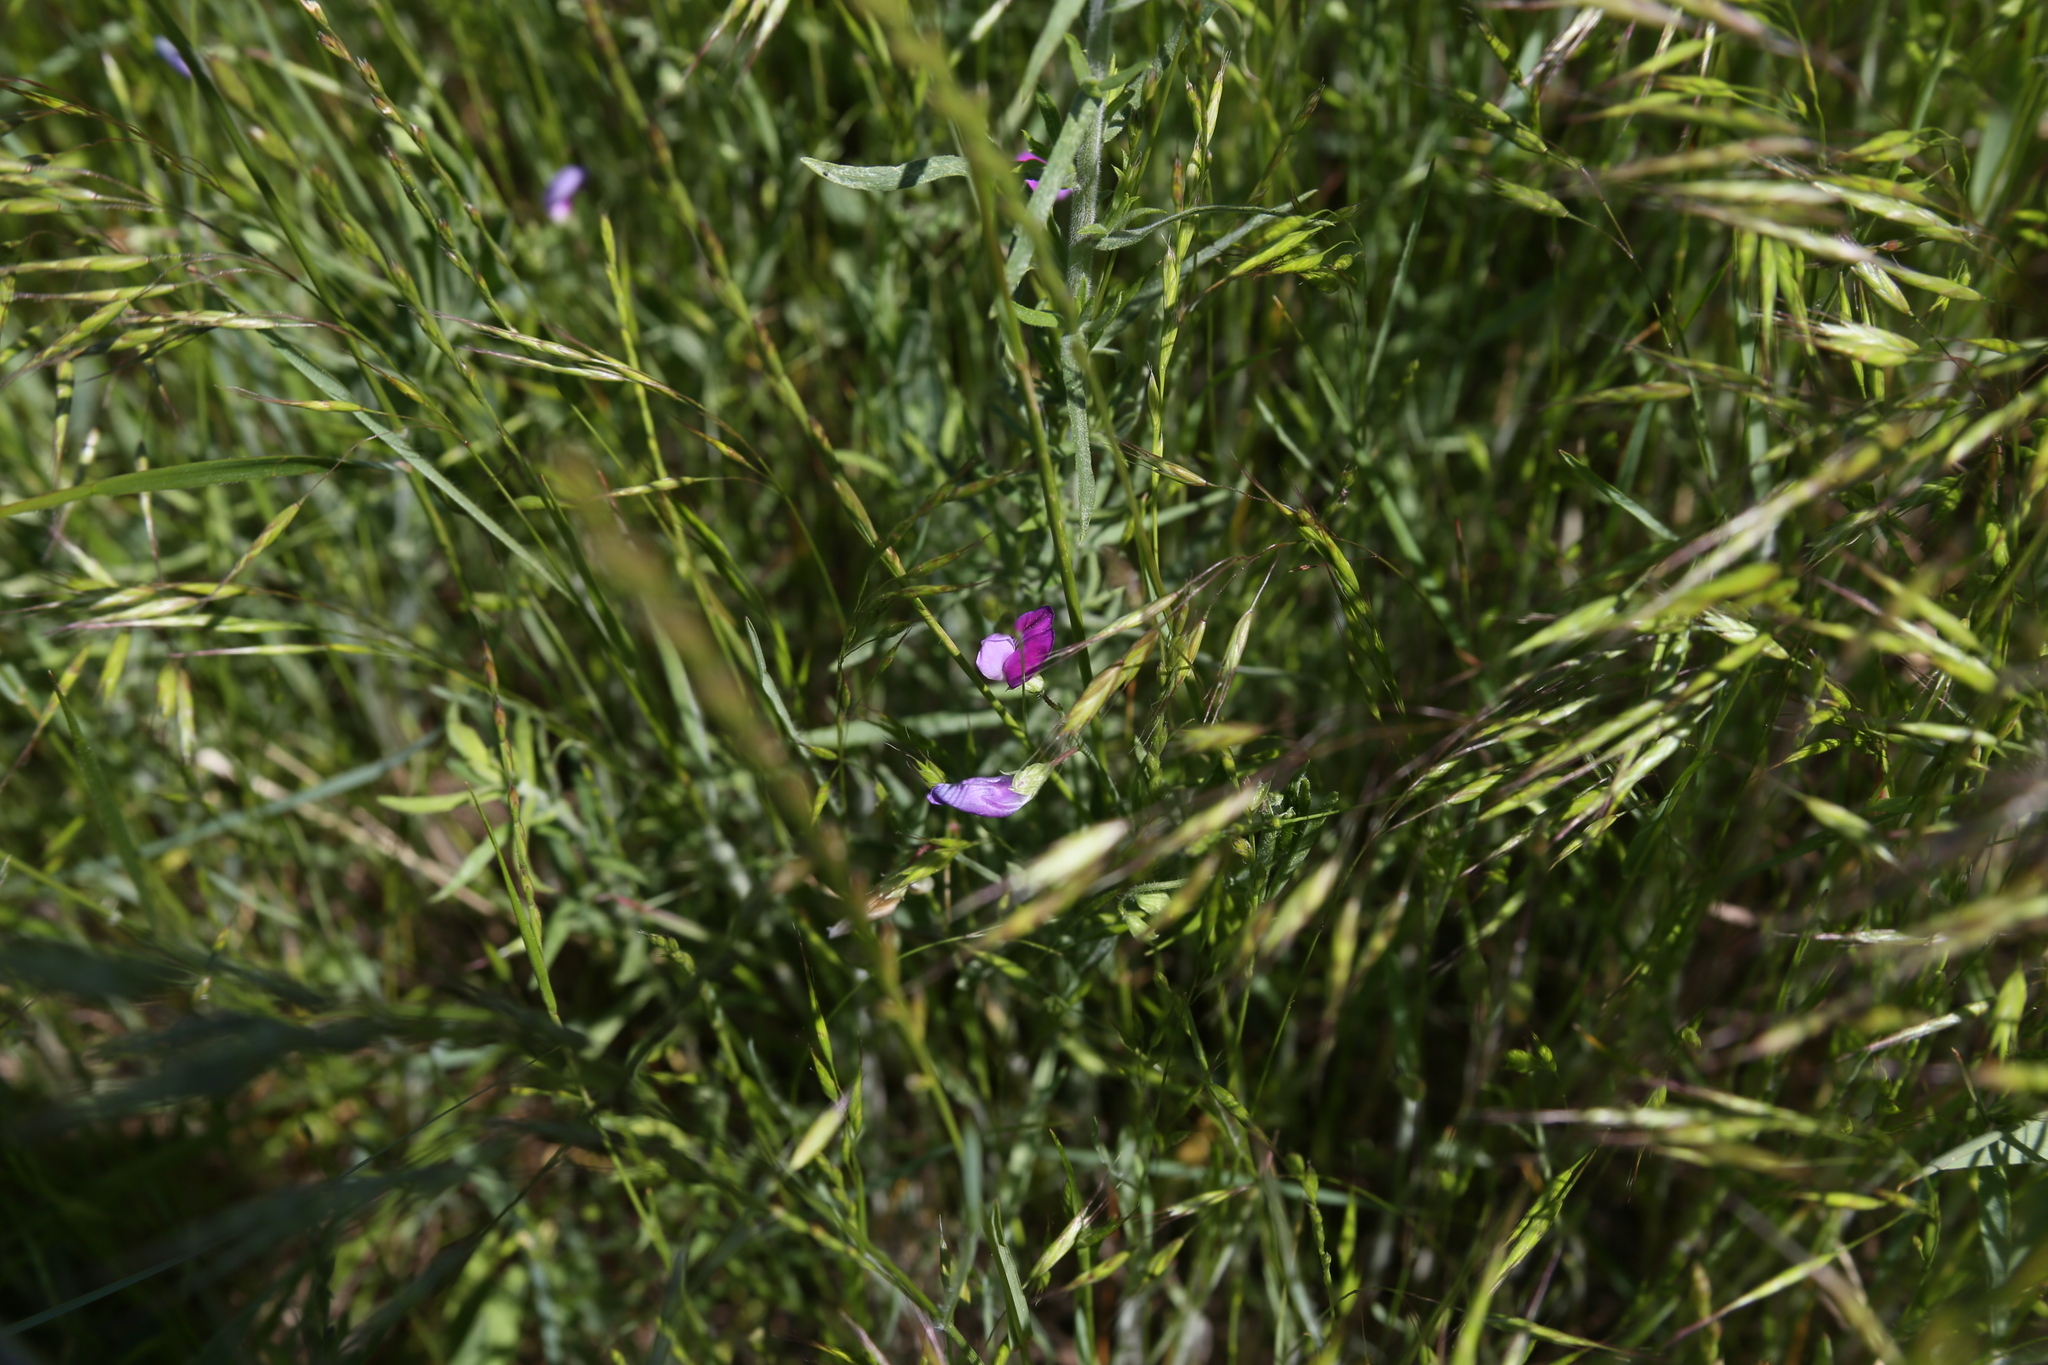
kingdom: Plantae
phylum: Tracheophyta
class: Magnoliopsida
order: Fabales
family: Fabaceae
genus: Lathyrus
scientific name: Lathyrus hirsutus
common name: Hairy vetchling
